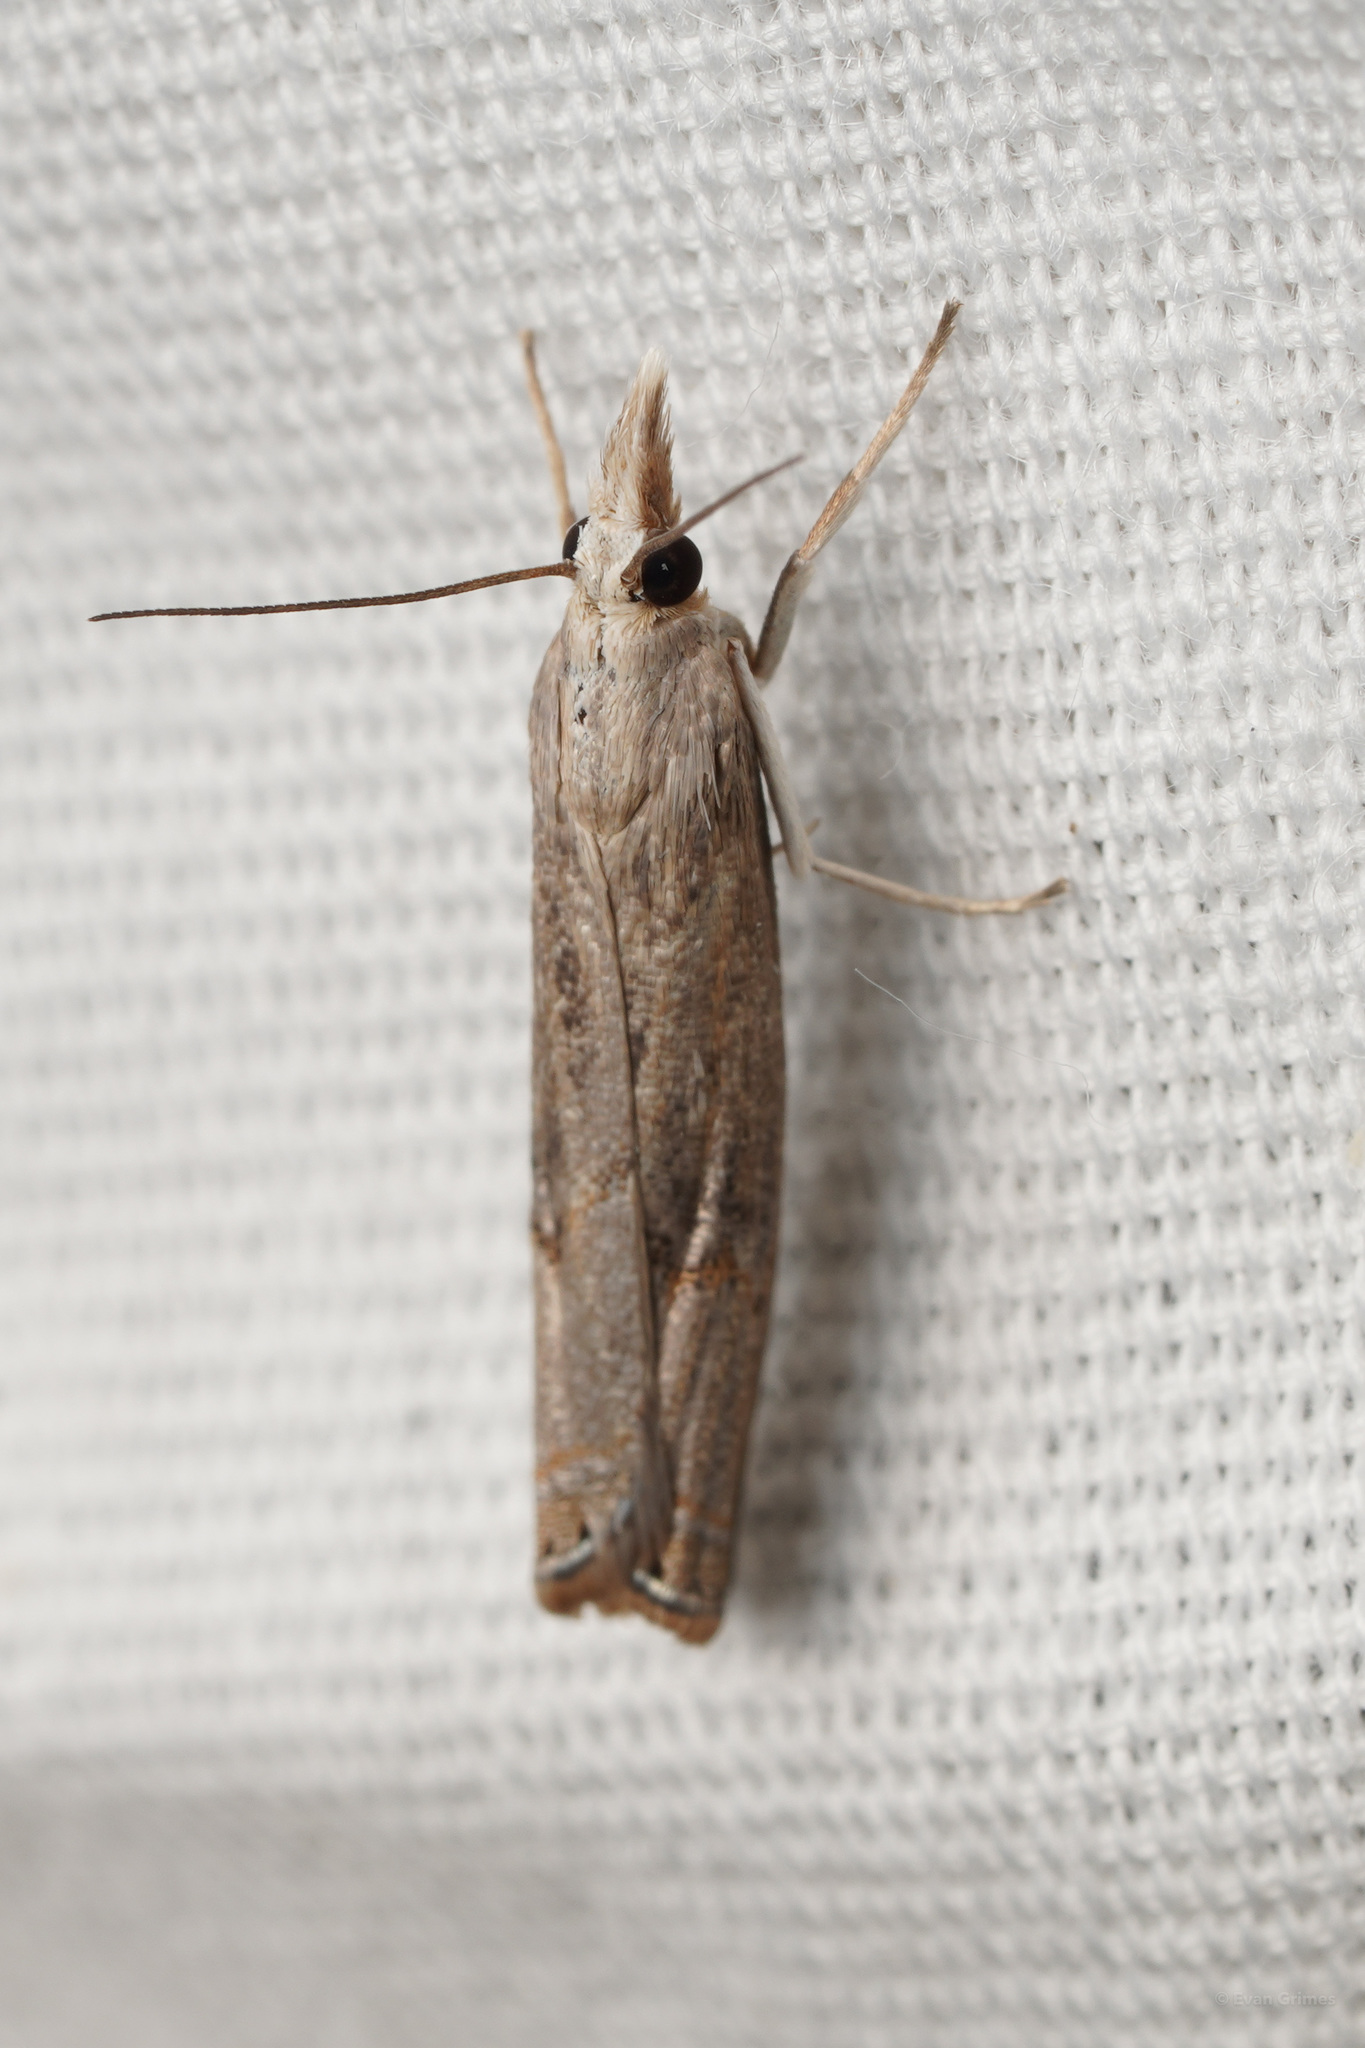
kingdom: Animalia
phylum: Arthropoda
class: Insecta
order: Lepidoptera
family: Crambidae
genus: Parapediasia
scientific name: Parapediasia teterellus
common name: Bluegrass webworm moth
